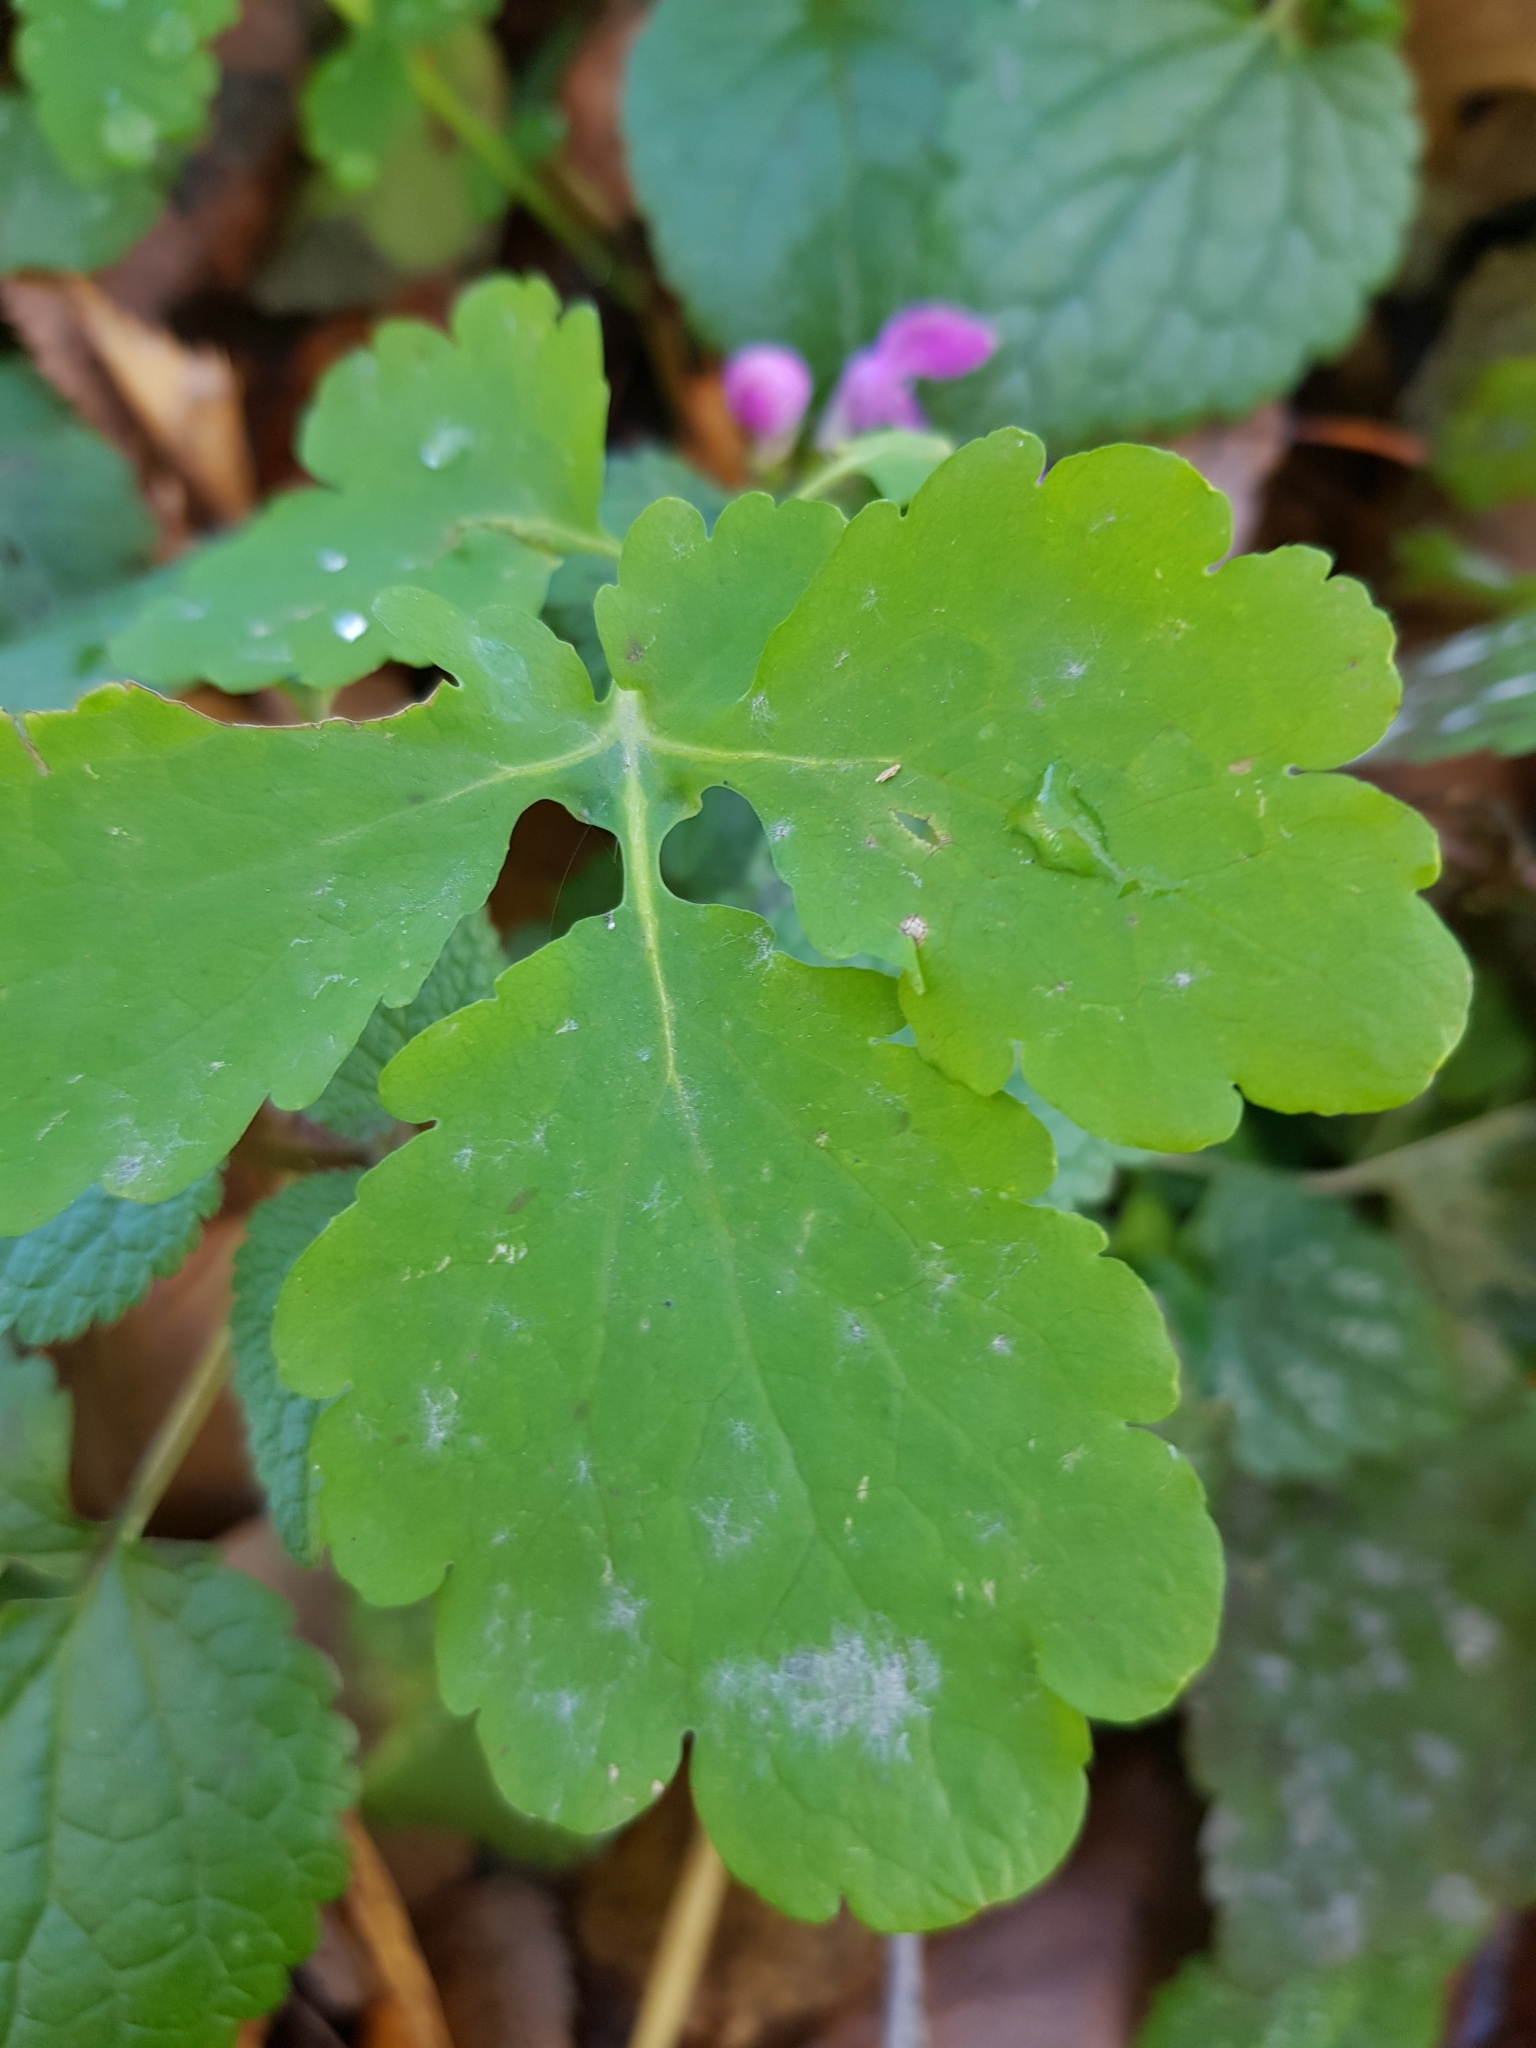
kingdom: Plantae
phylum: Tracheophyta
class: Magnoliopsida
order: Ranunculales
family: Papaveraceae
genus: Chelidonium
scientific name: Chelidonium majus
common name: Greater celandine
